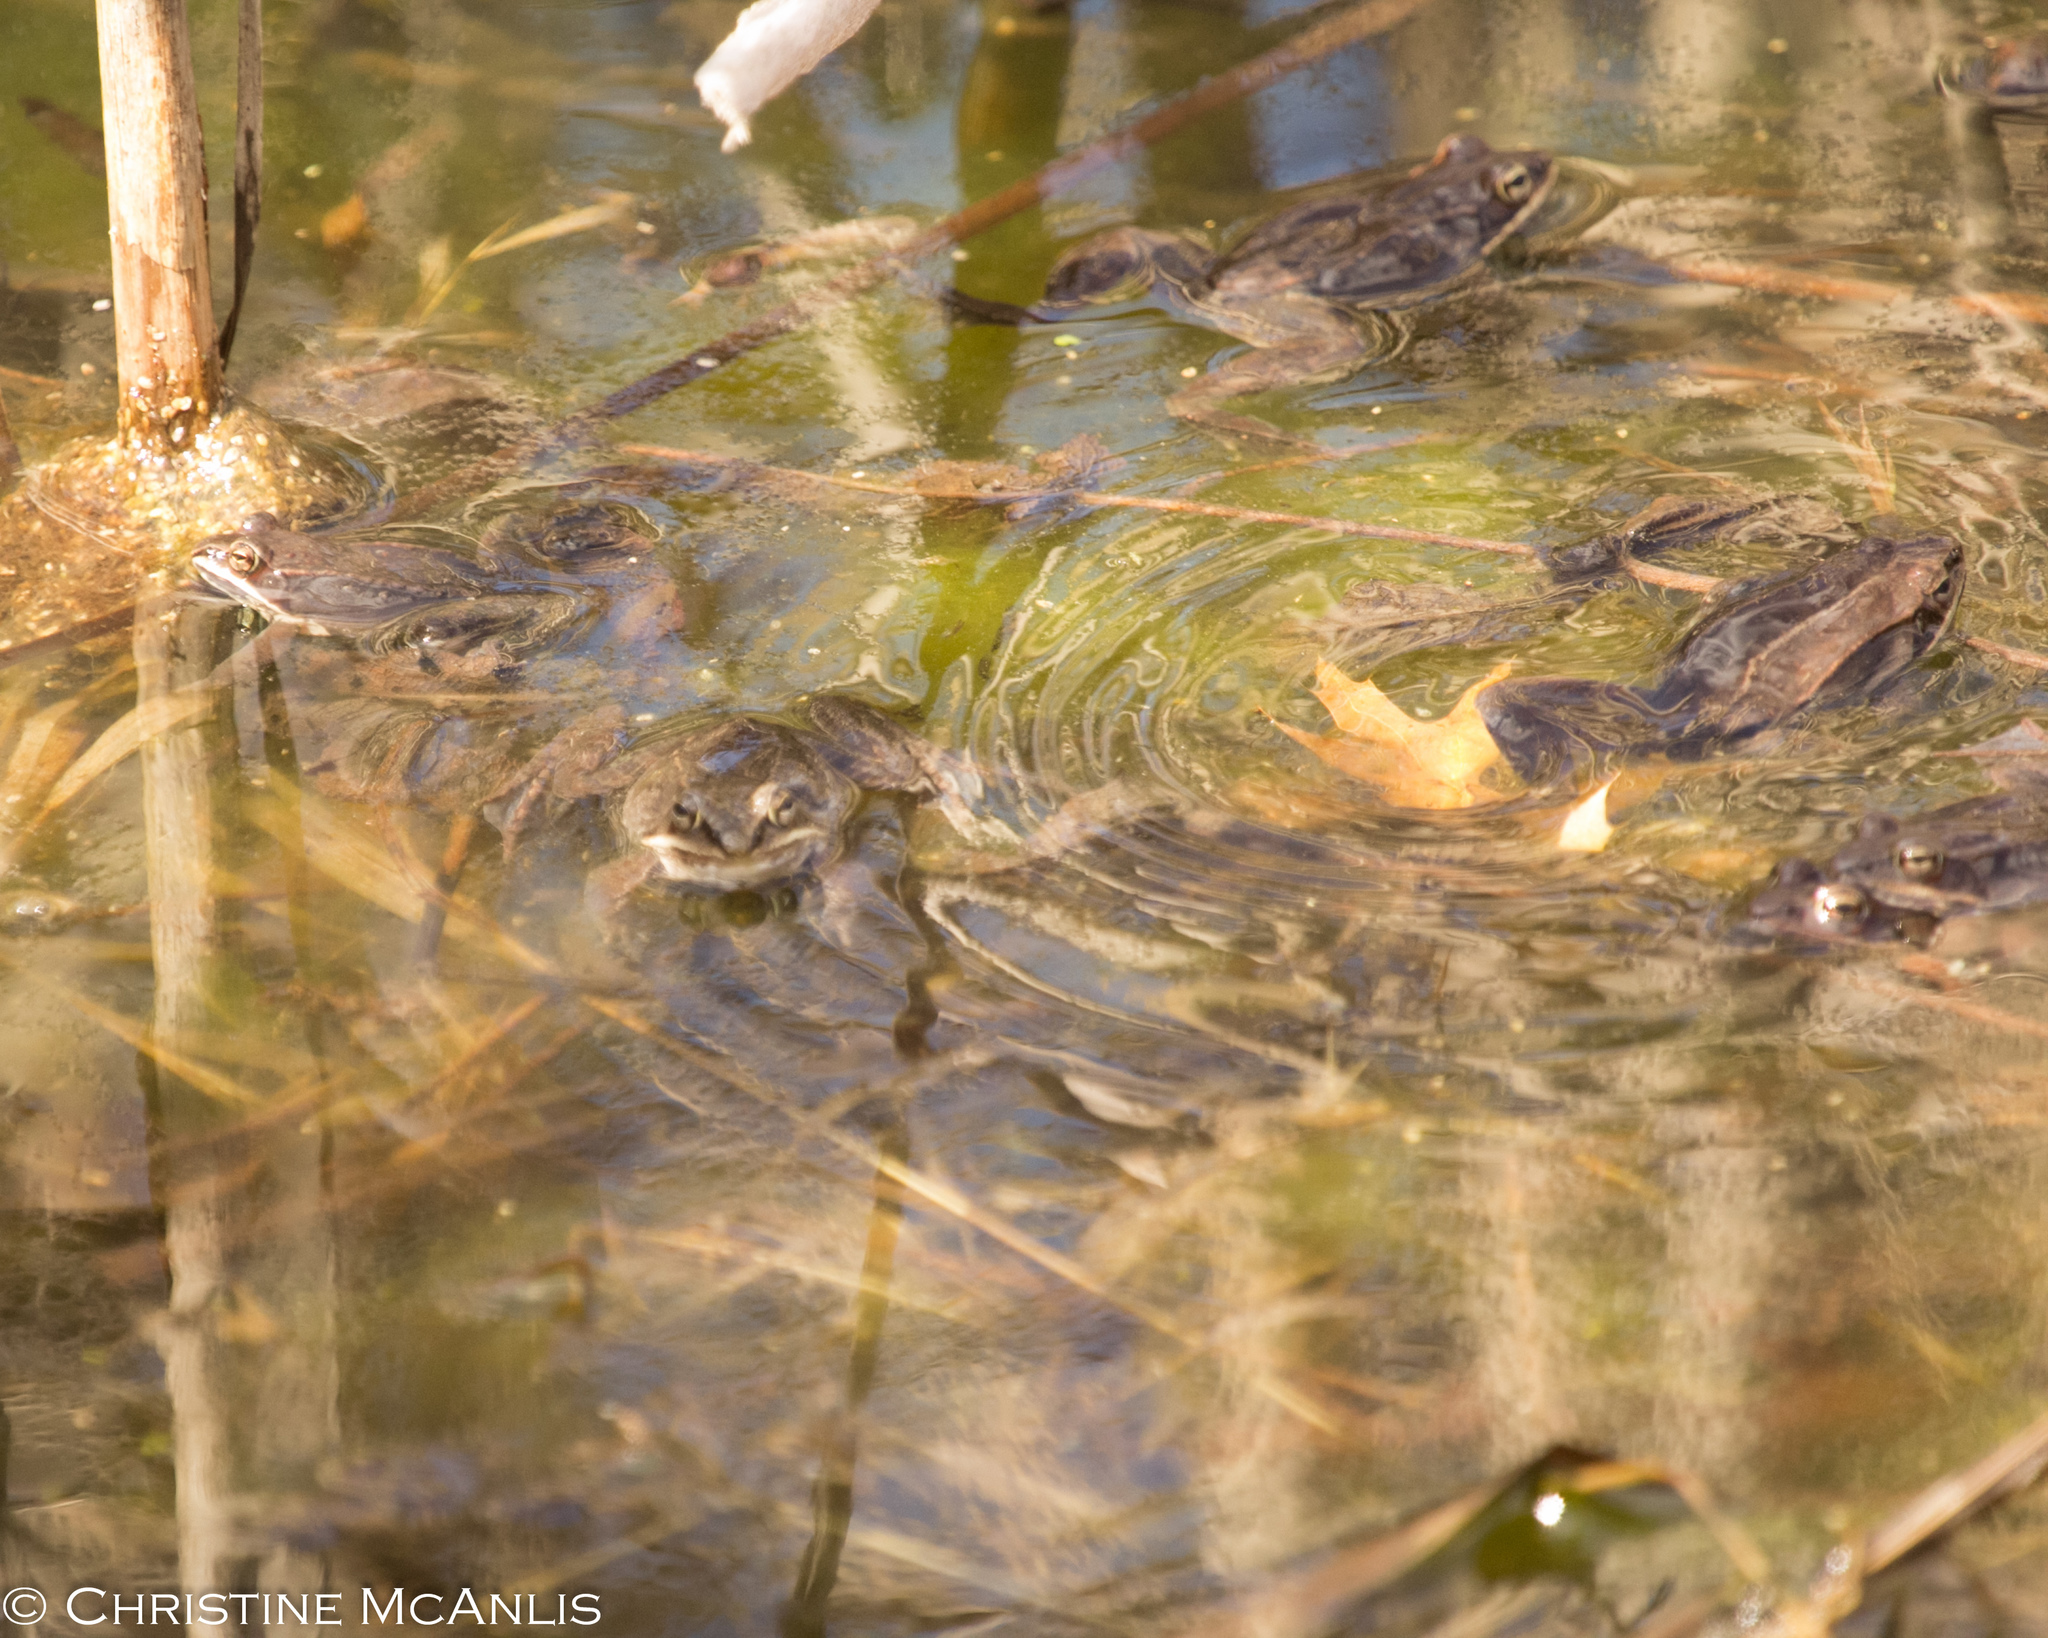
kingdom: Animalia
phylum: Chordata
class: Amphibia
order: Anura
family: Ranidae
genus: Lithobates
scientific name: Lithobates sylvaticus
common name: Wood frog
